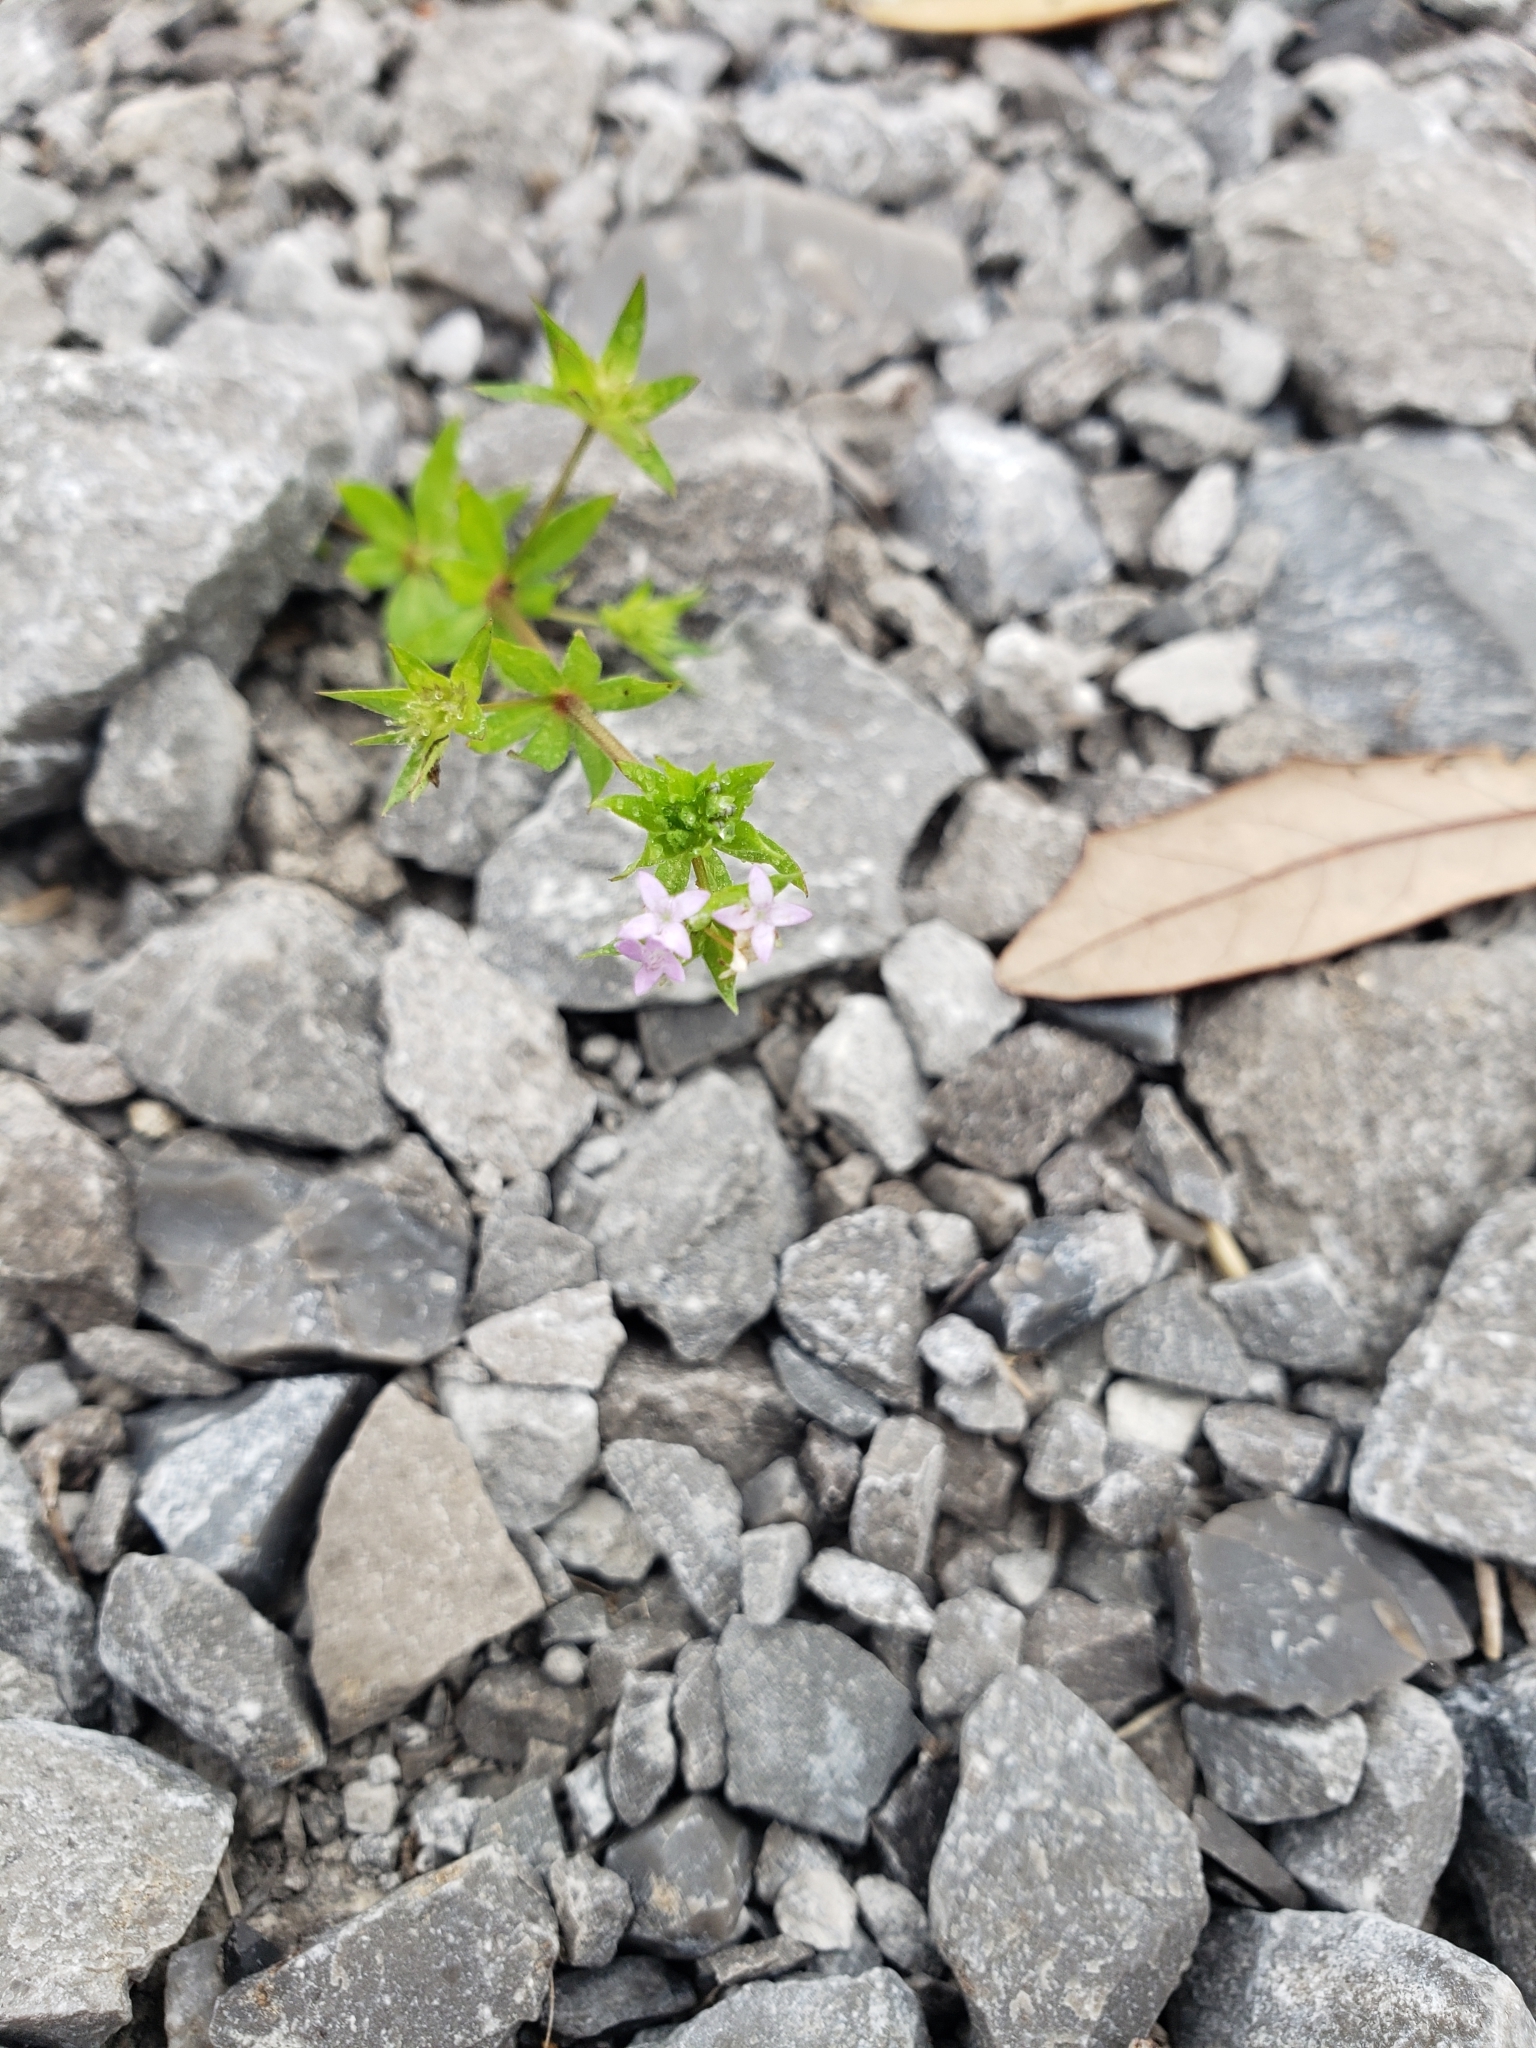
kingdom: Plantae
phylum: Tracheophyta
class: Magnoliopsida
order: Gentianales
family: Rubiaceae
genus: Sherardia
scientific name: Sherardia arvensis
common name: Field madder
